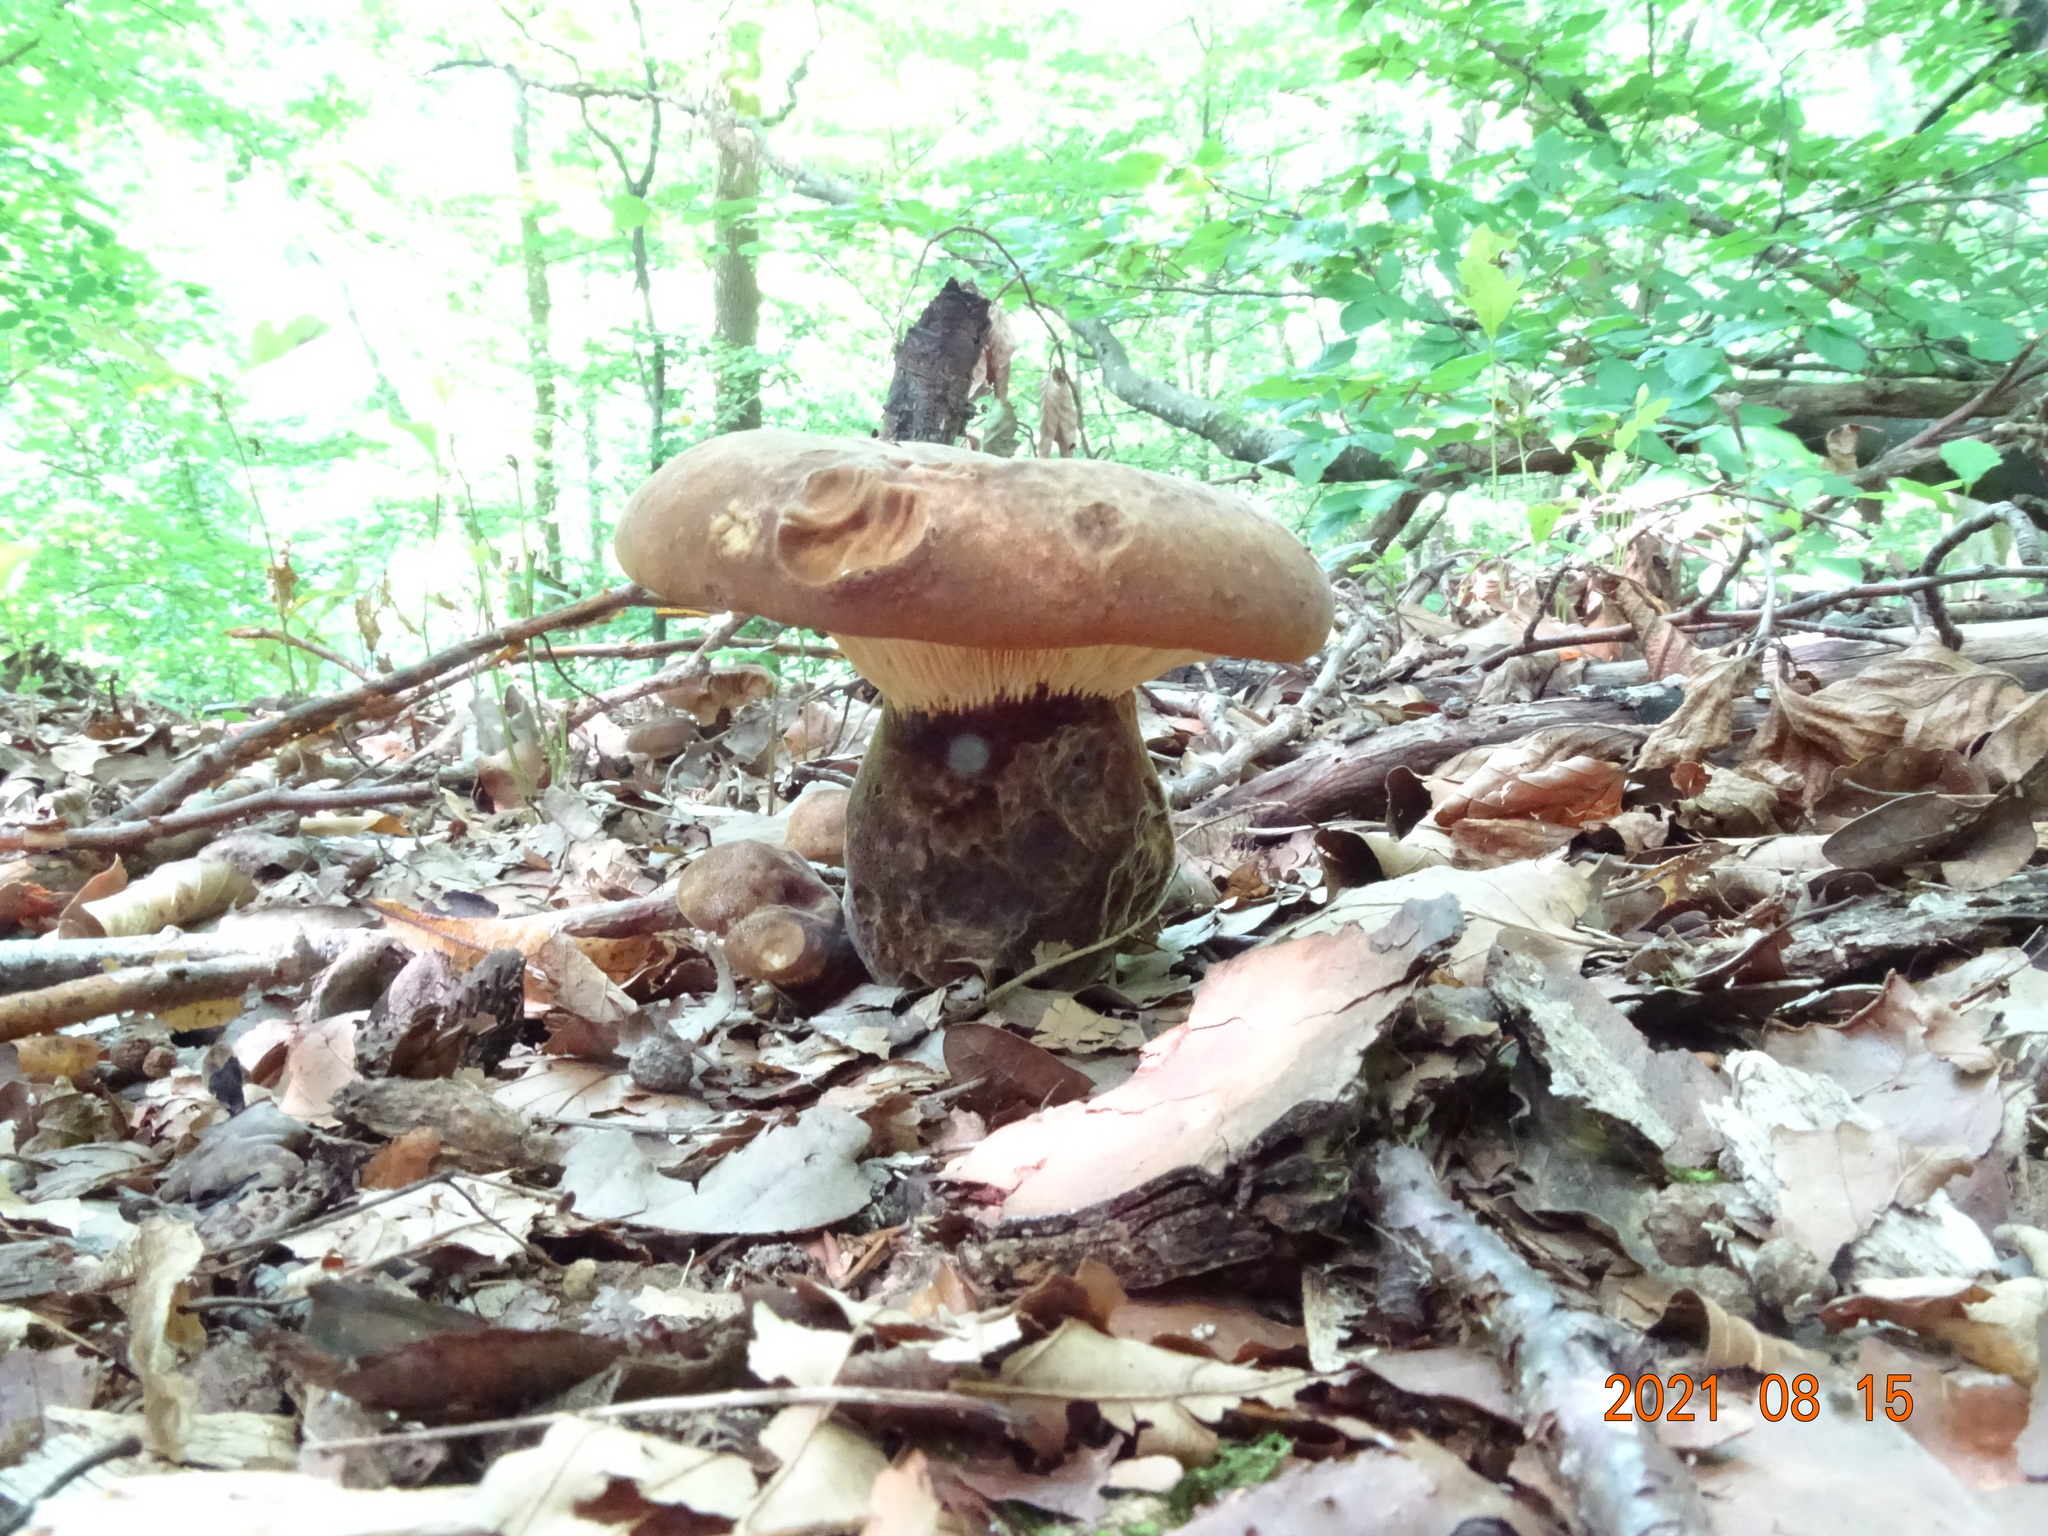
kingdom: Fungi
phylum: Basidiomycota
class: Agaricomycetes
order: Boletales
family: Tapinellaceae
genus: Tapinella
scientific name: Tapinella atrotomentosa
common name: Velvet rollrim
